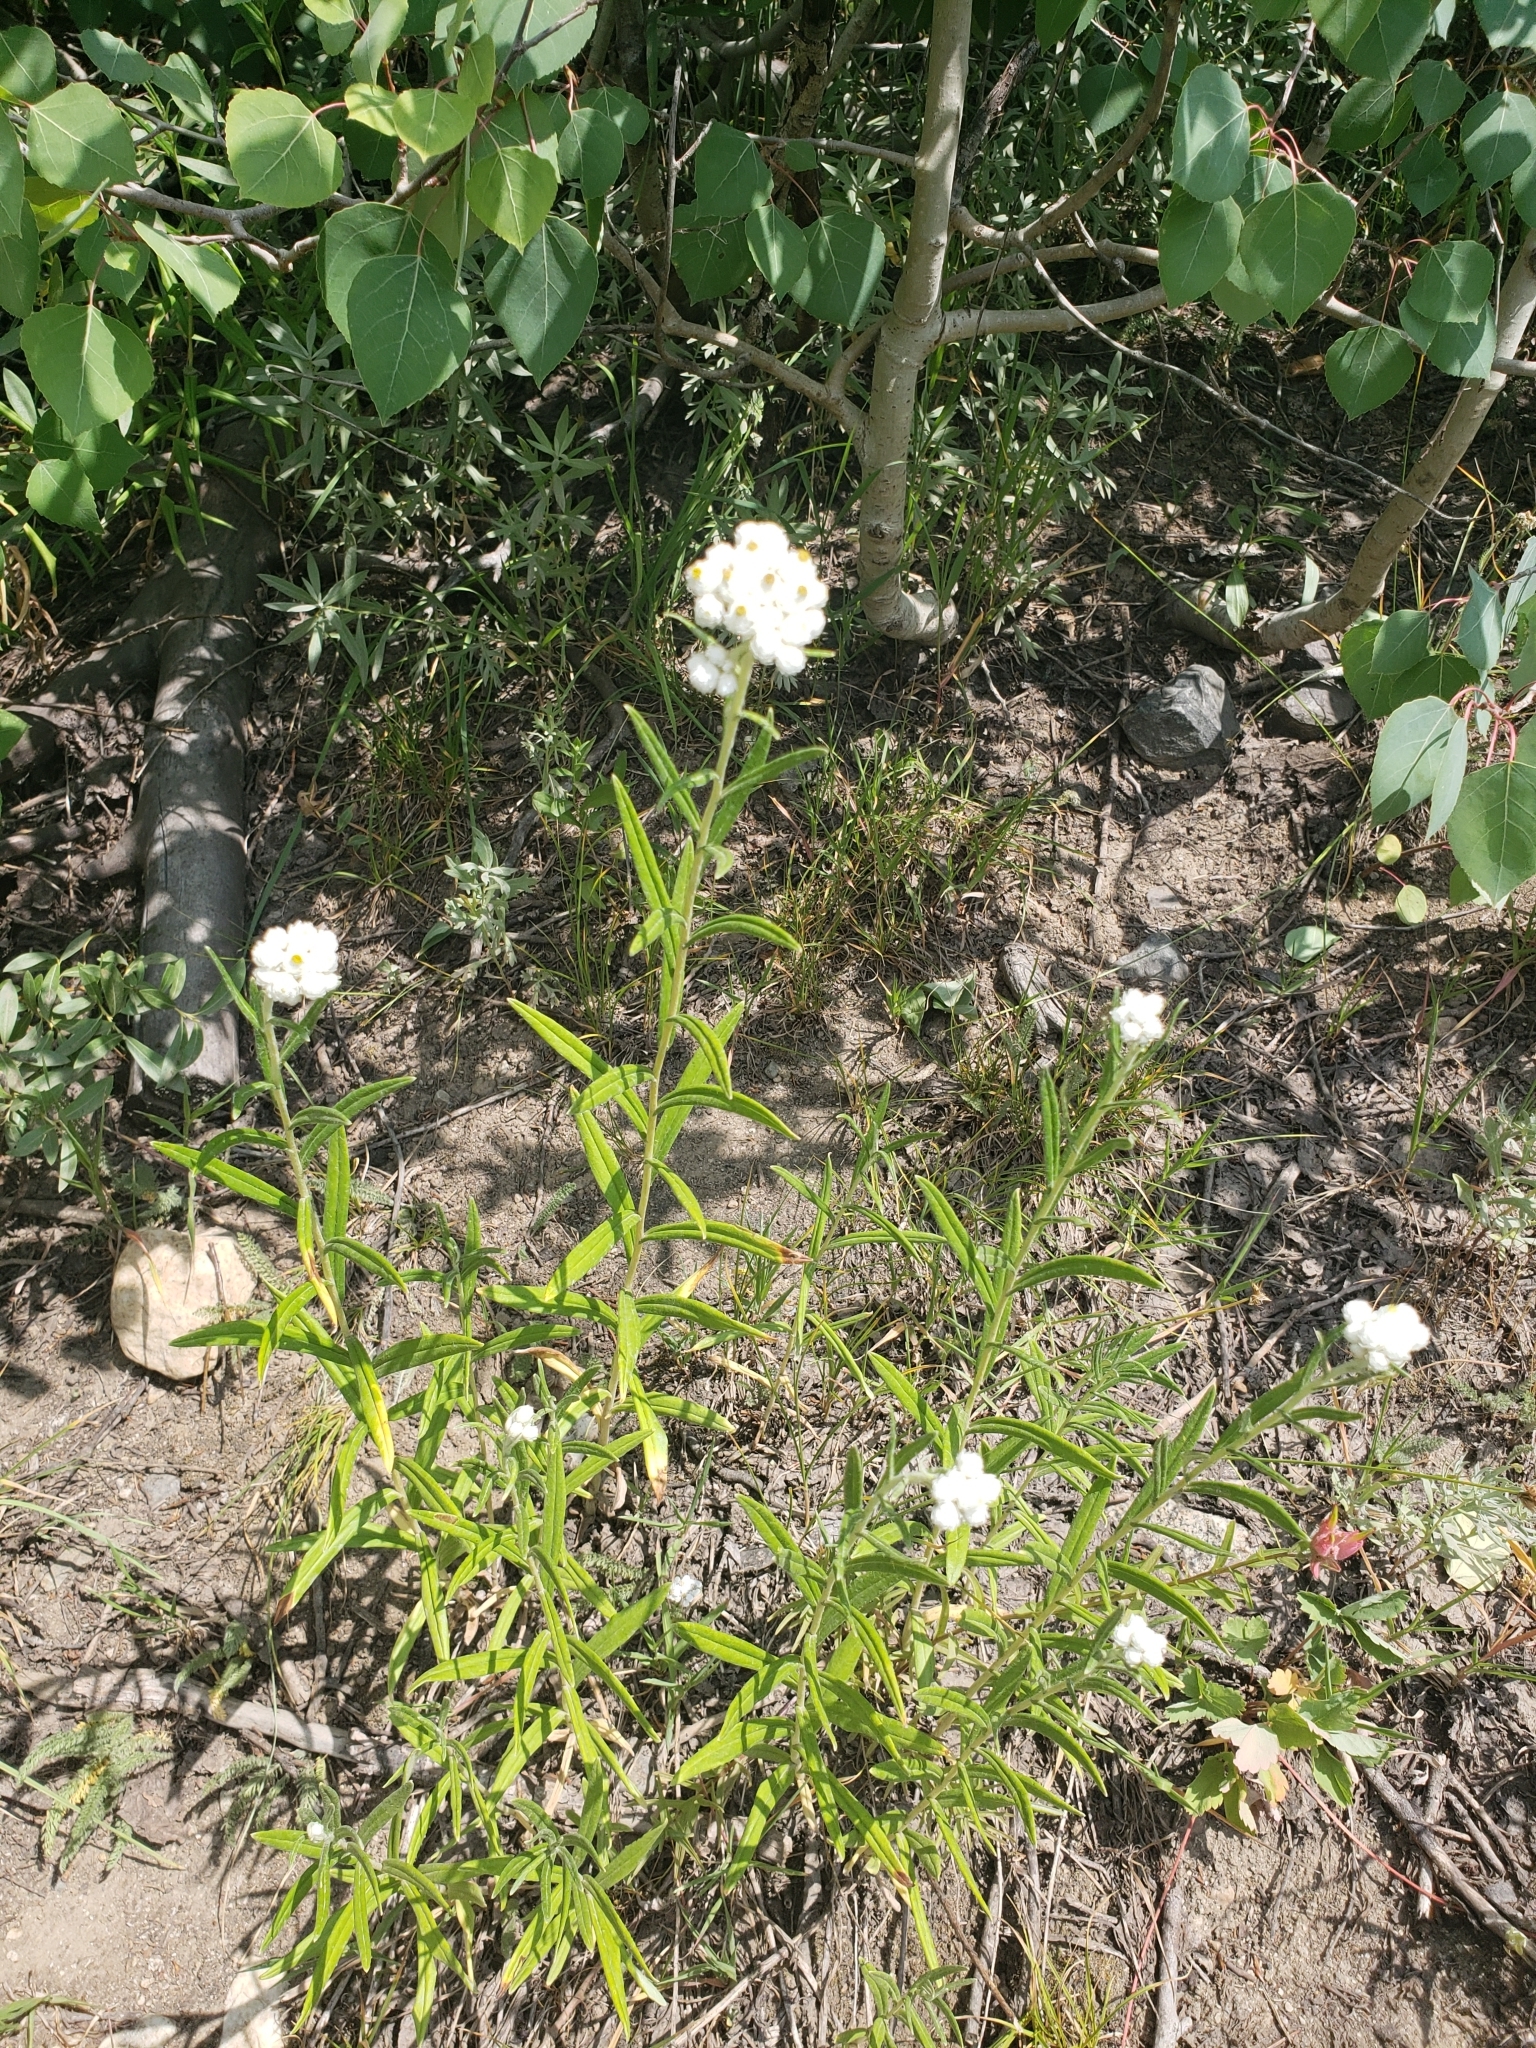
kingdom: Plantae
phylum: Tracheophyta
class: Magnoliopsida
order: Asterales
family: Asteraceae
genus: Anaphalis
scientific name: Anaphalis margaritacea
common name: Pearly everlasting
